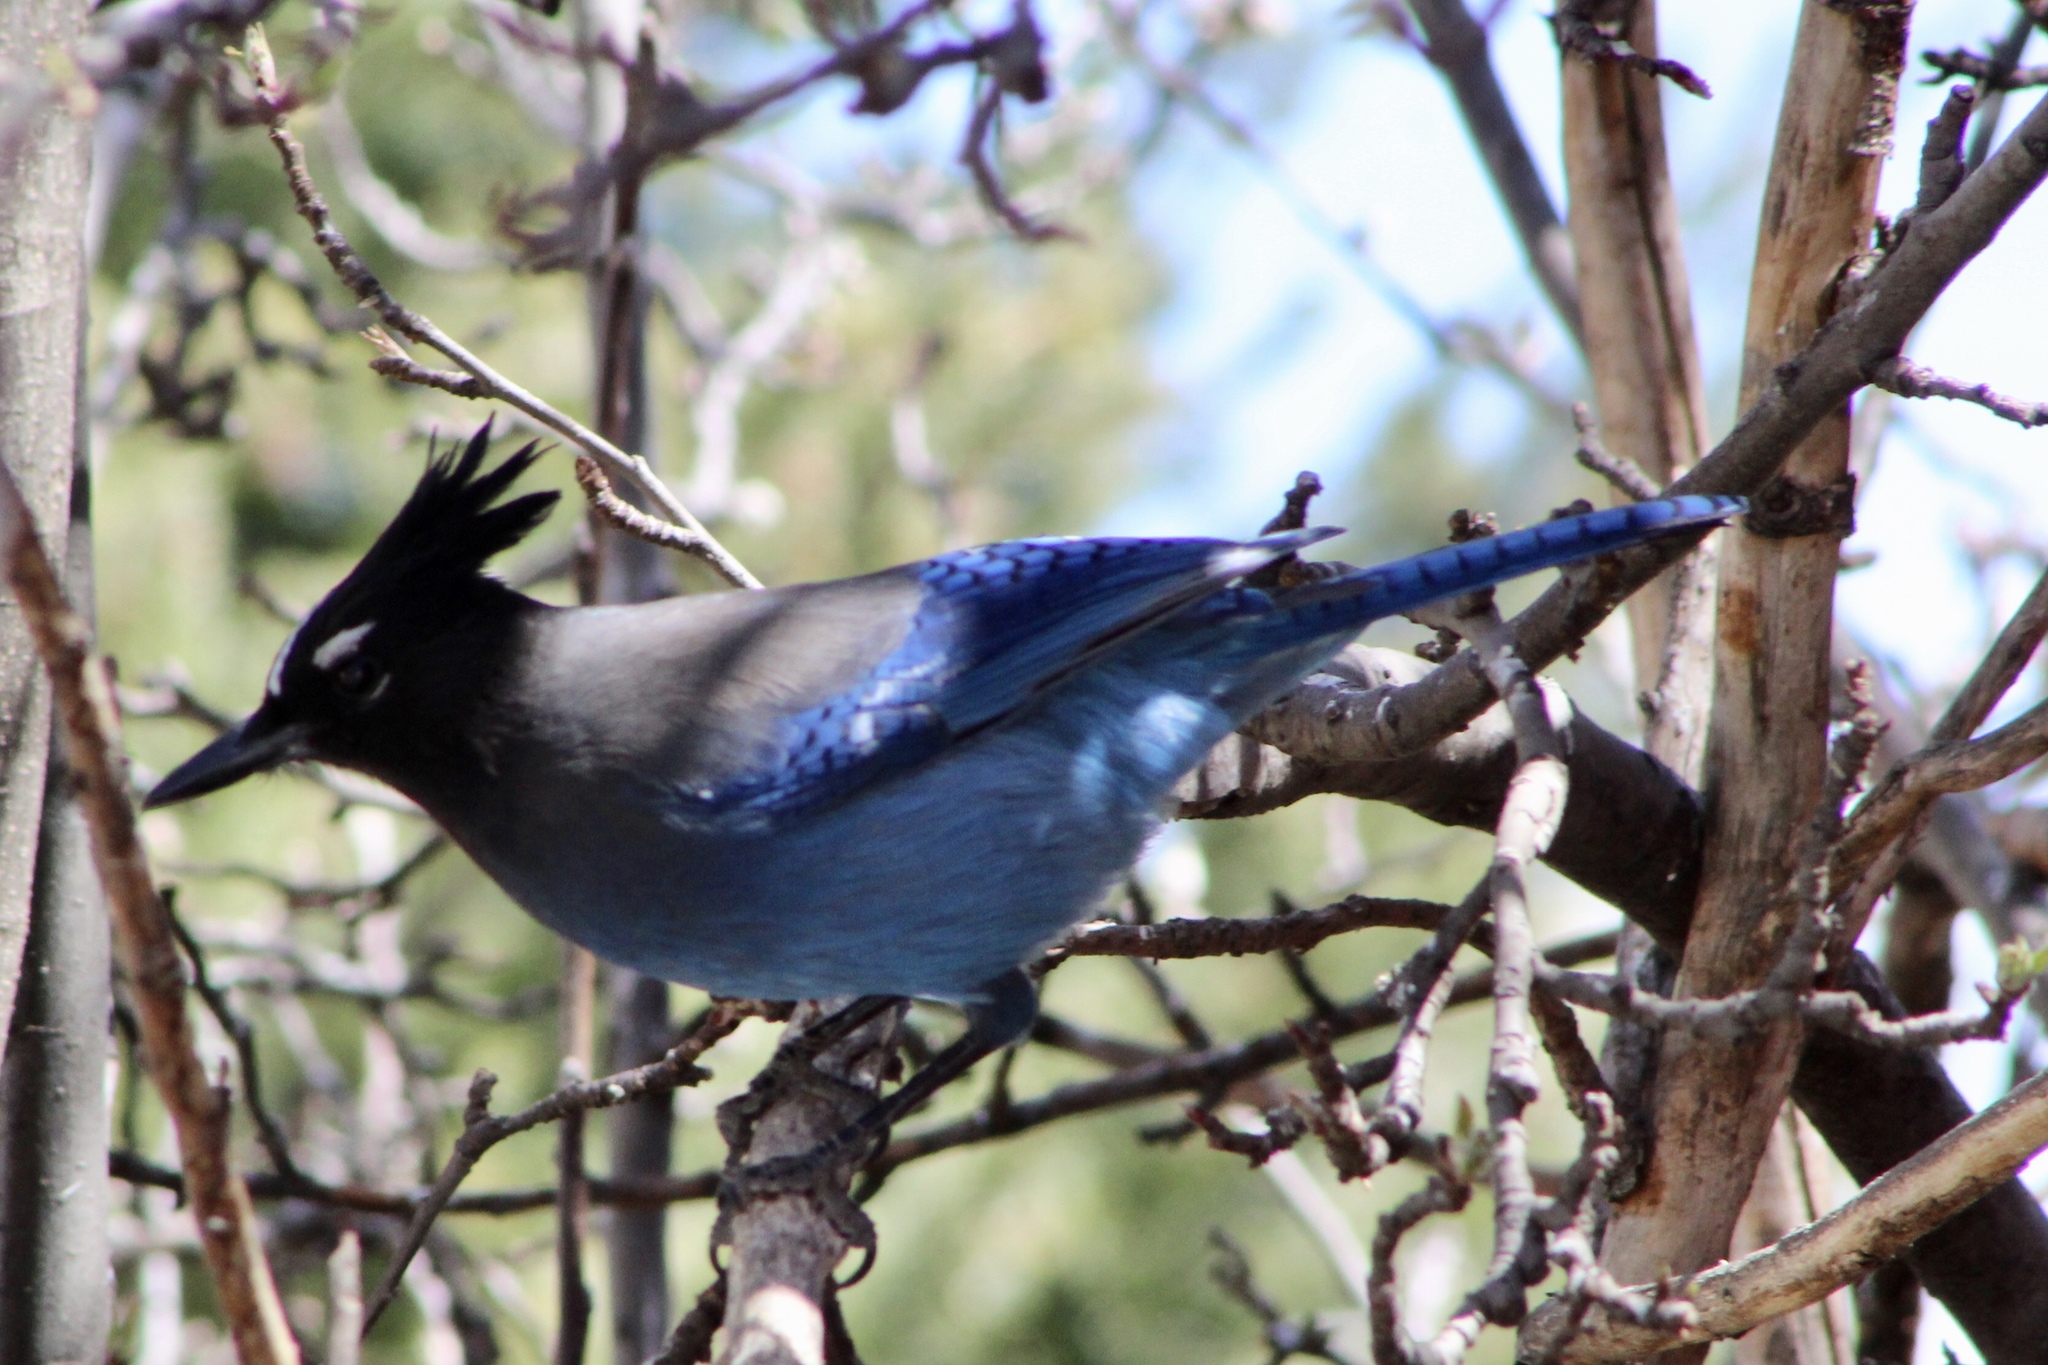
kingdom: Animalia
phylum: Chordata
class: Aves
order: Passeriformes
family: Corvidae
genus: Cyanocitta
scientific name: Cyanocitta stelleri
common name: Steller's jay
